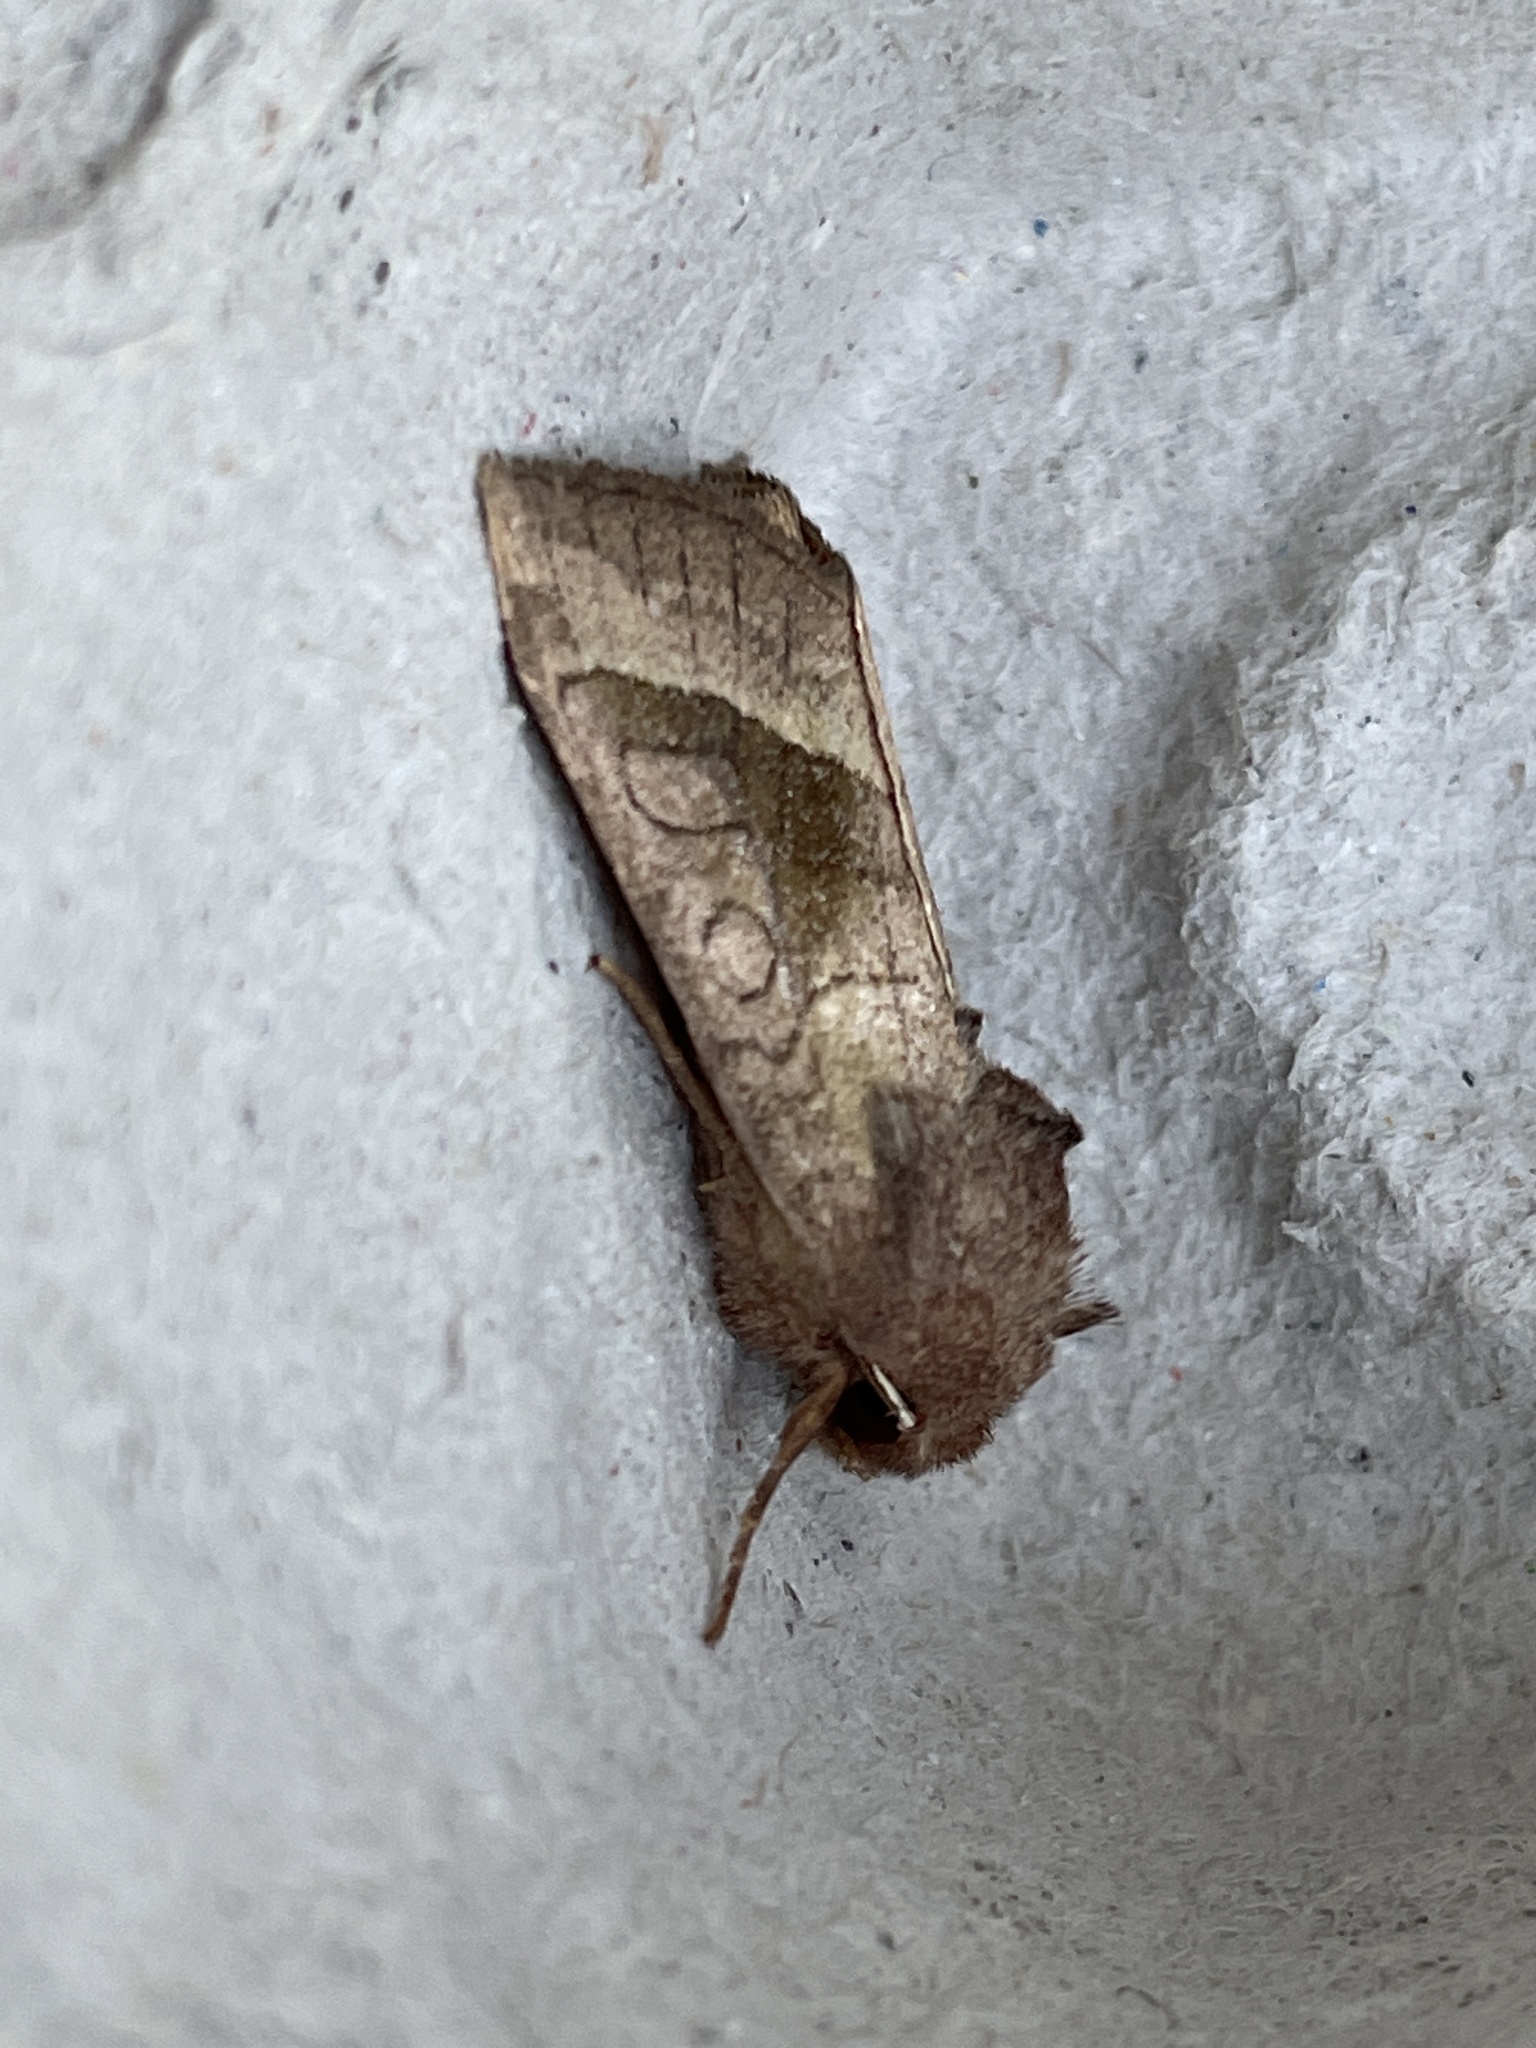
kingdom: Animalia
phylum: Arthropoda
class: Insecta
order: Lepidoptera
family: Noctuidae
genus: Hydraecia
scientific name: Hydraecia micacea
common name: Rosy rustic
